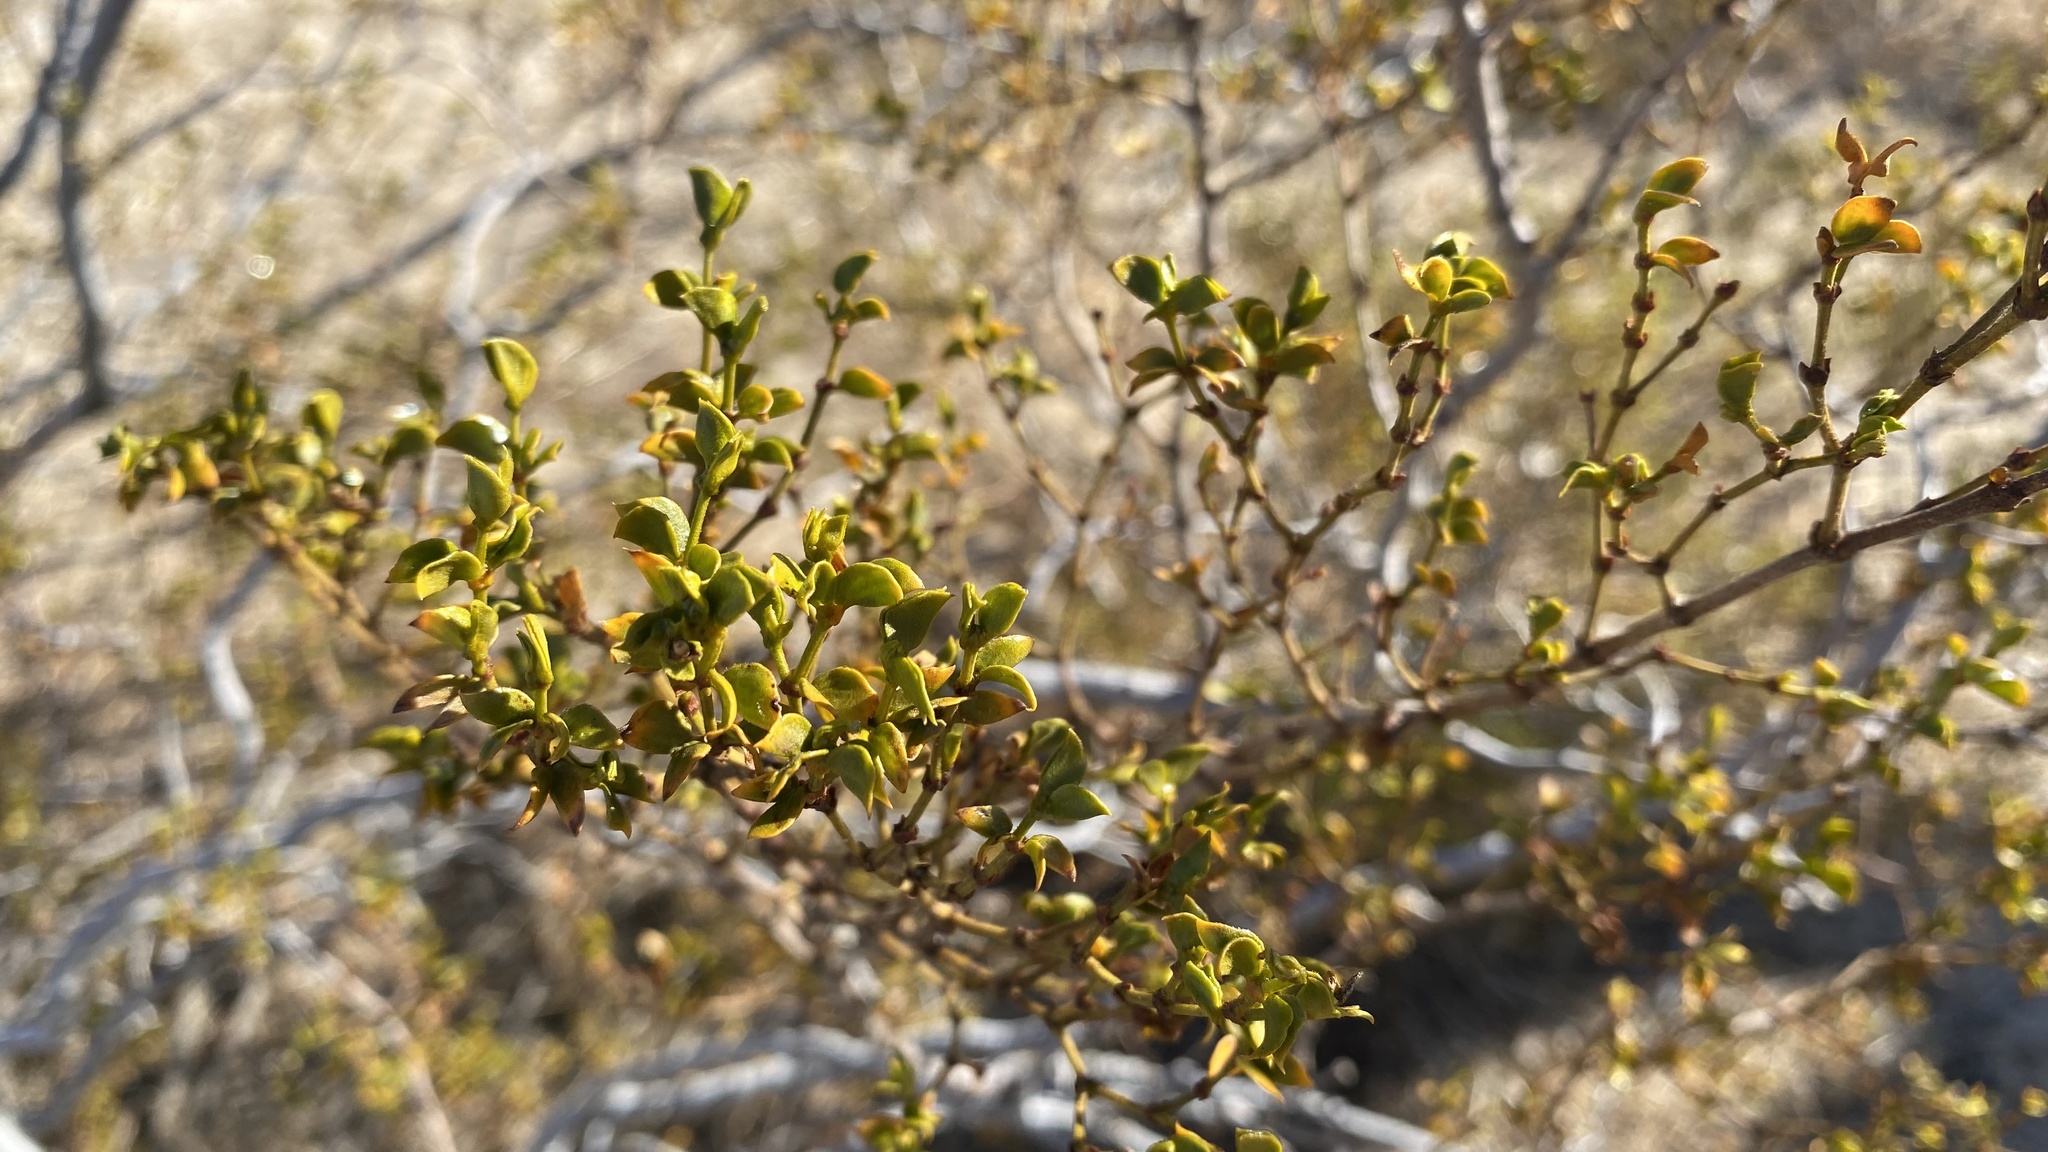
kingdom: Plantae
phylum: Tracheophyta
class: Magnoliopsida
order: Zygophyllales
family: Zygophyllaceae
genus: Larrea
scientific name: Larrea tridentata
